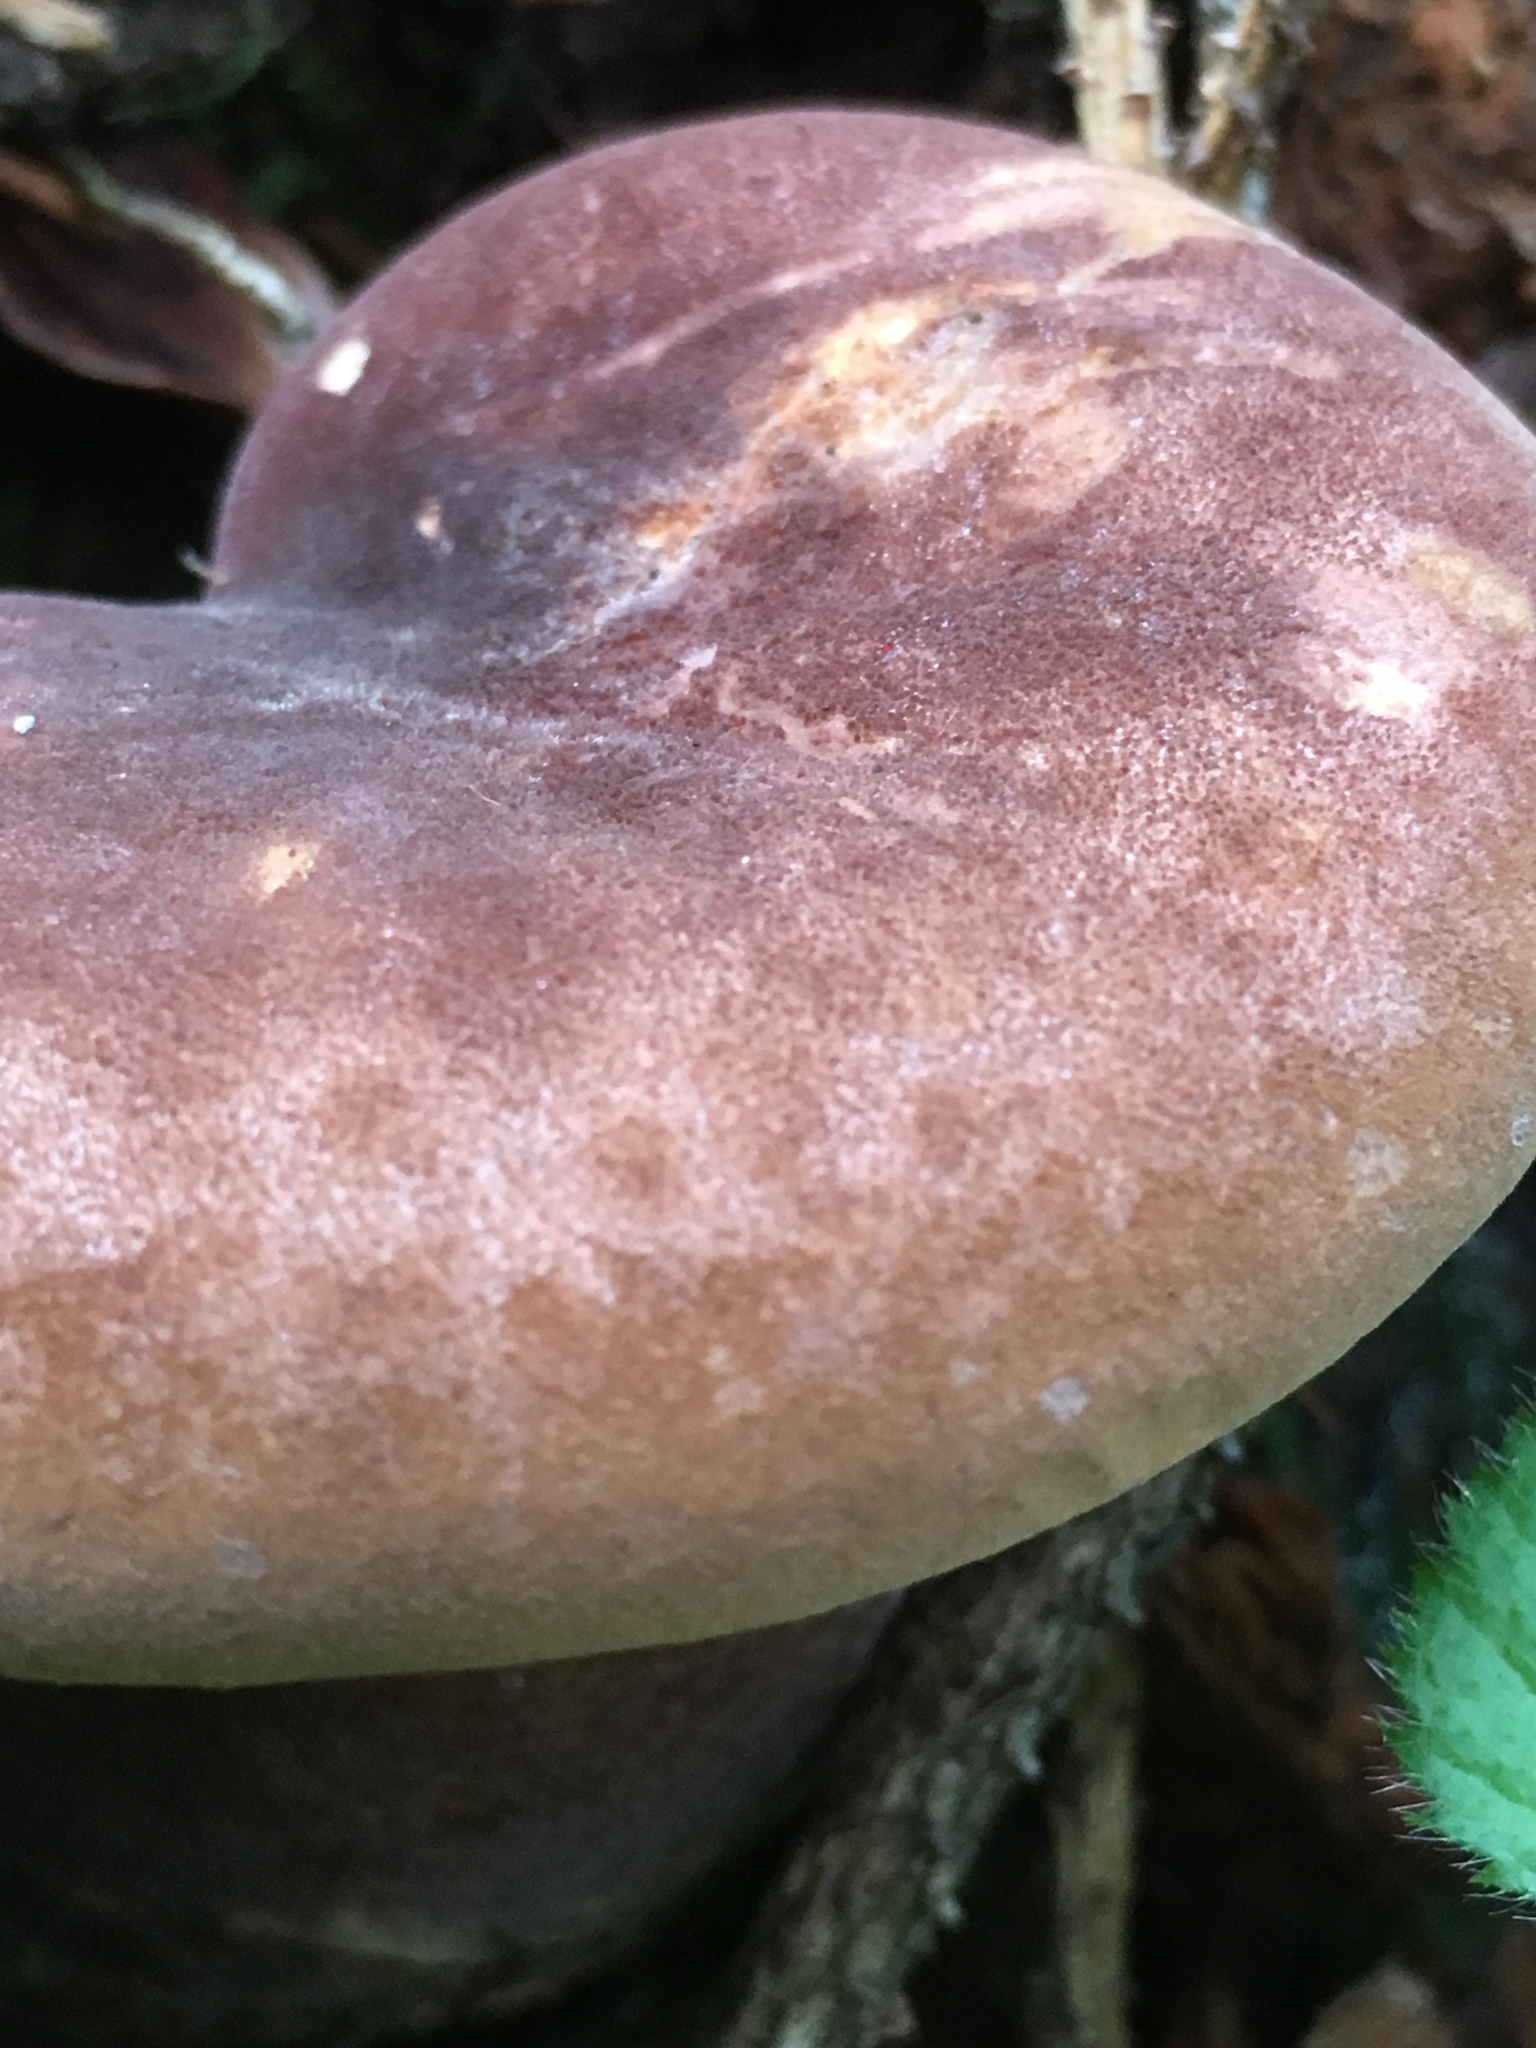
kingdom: Fungi
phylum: Basidiomycota
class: Agaricomycetes
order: Boletales
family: Tapinellaceae
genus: Tapinella
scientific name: Tapinella atrotomentosa
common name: Velvet rollrim
